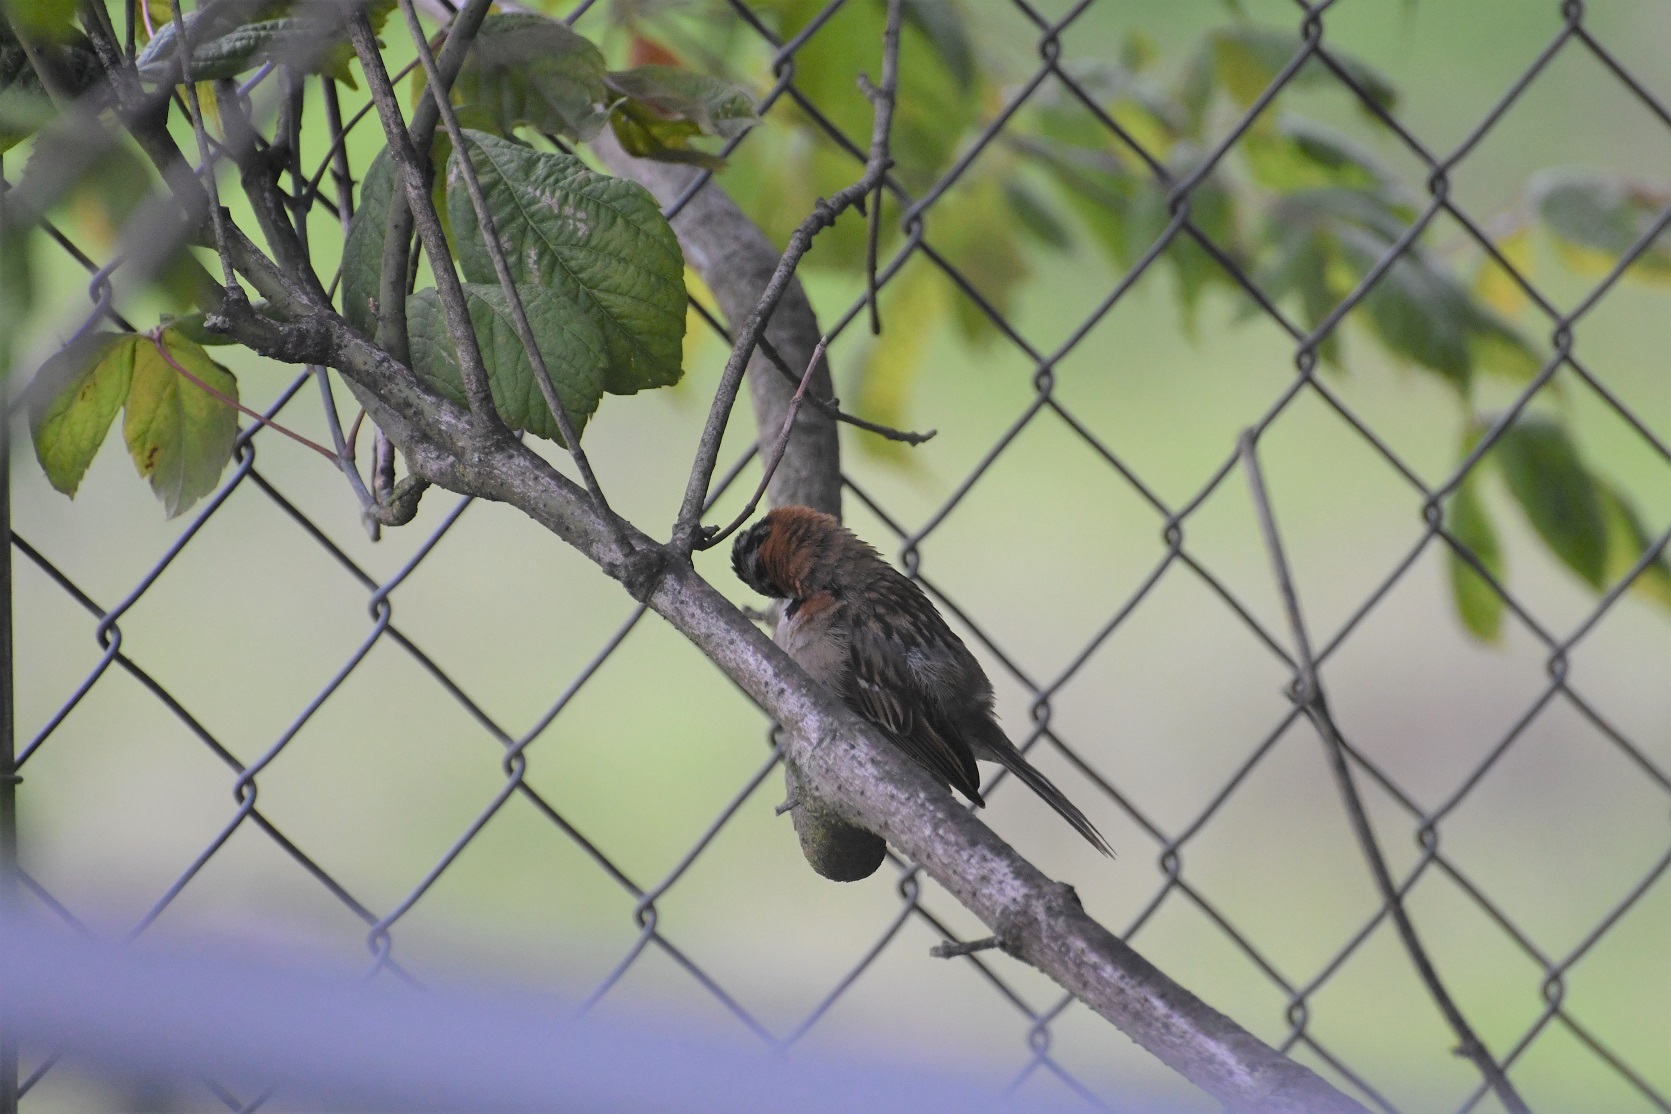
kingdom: Animalia
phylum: Chordata
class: Aves
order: Passeriformes
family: Passerellidae
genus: Zonotrichia
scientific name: Zonotrichia capensis
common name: Rufous-collared sparrow
